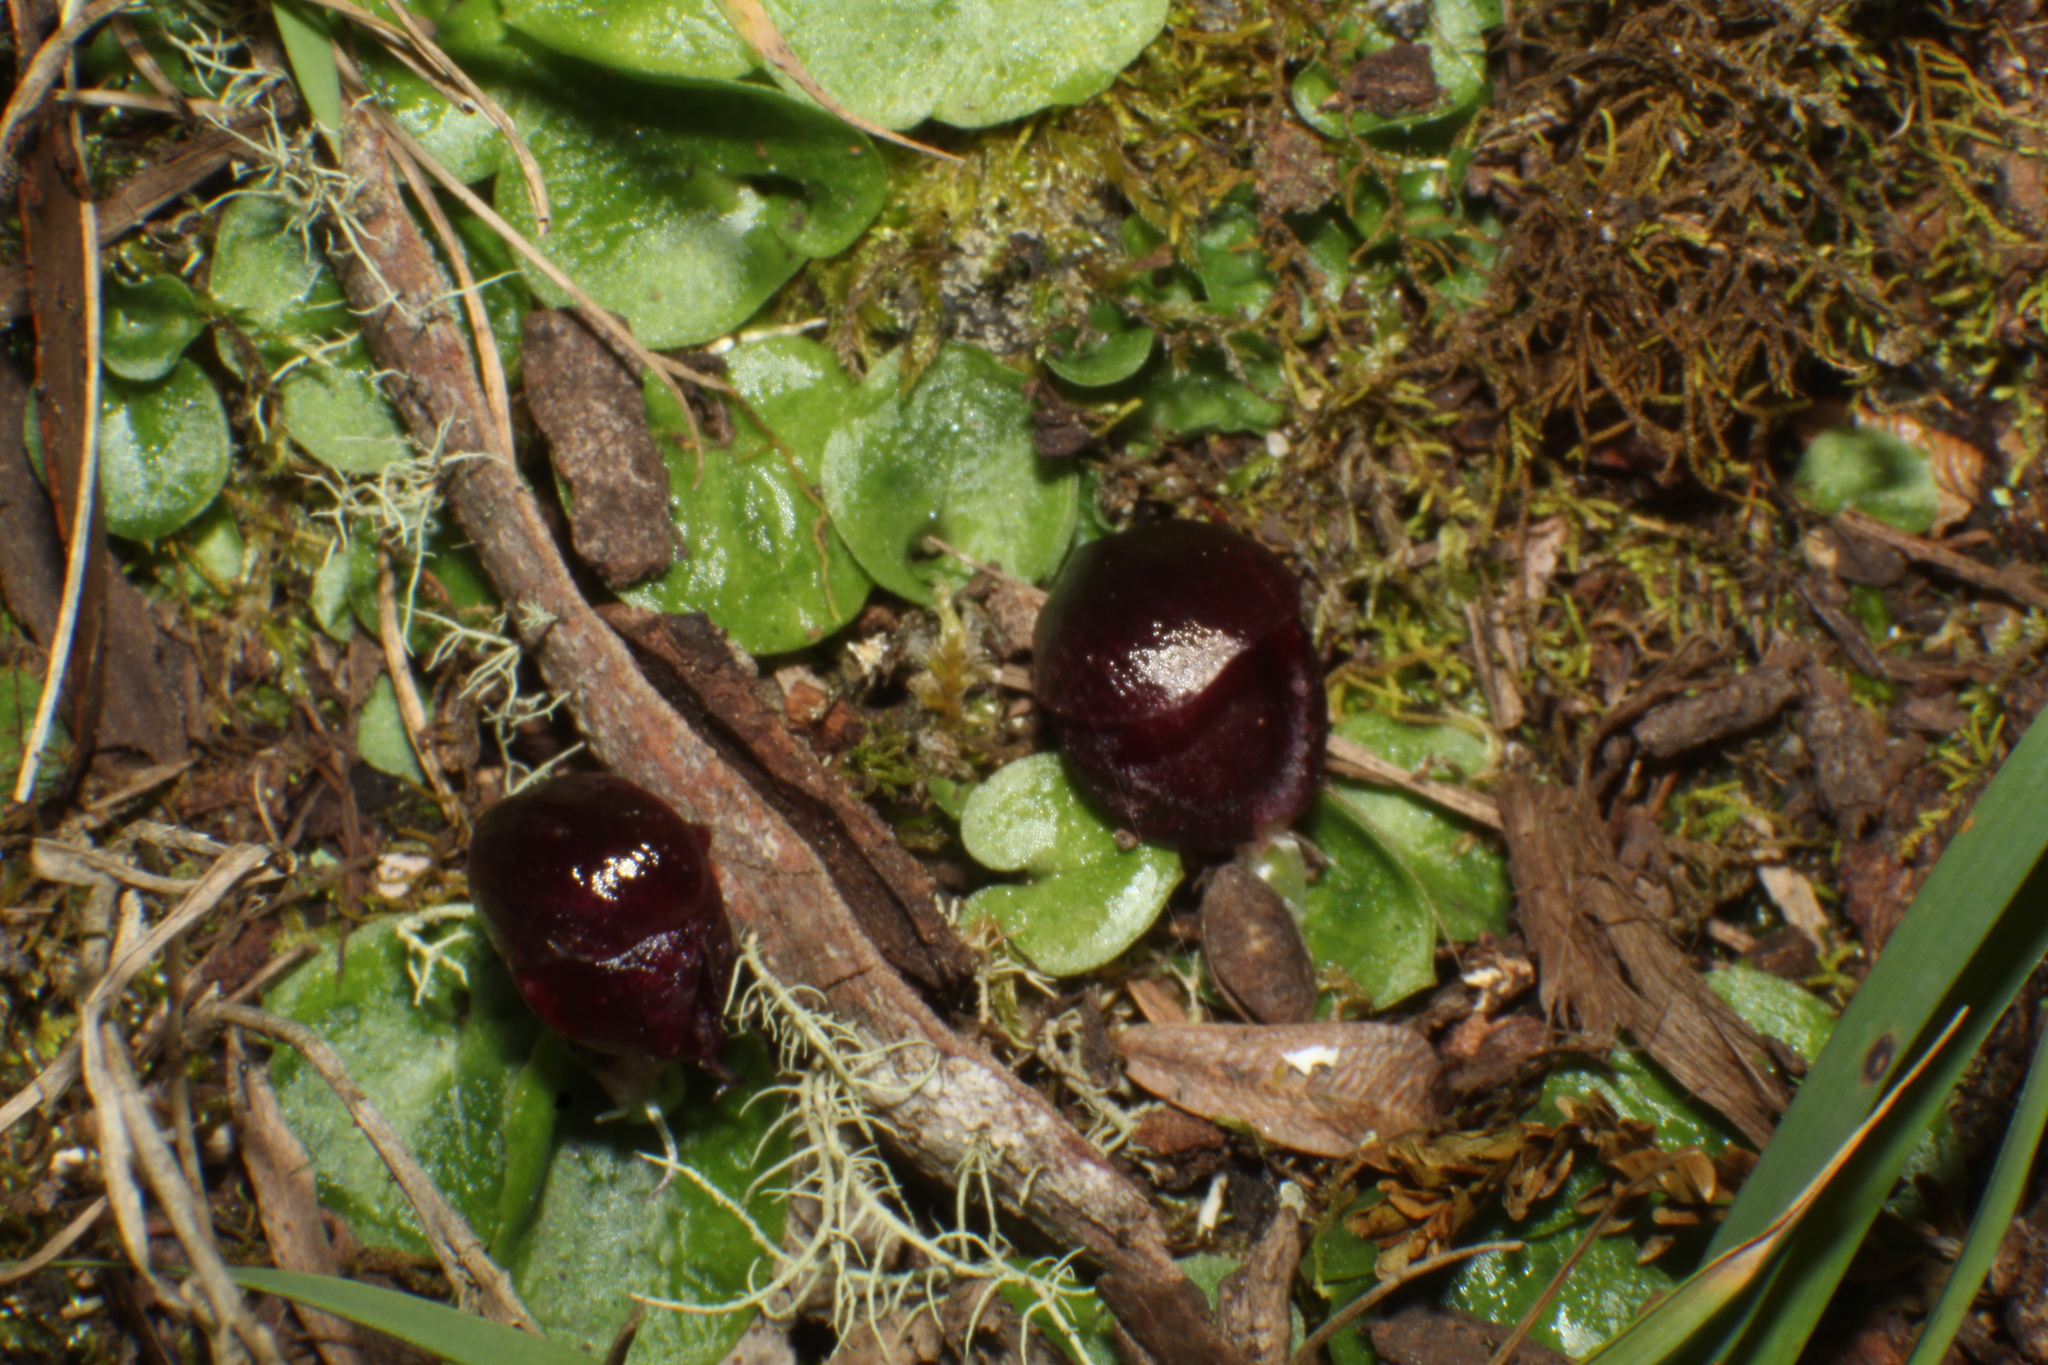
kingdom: Plantae
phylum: Tracheophyta
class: Liliopsida
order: Asparagales
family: Orchidaceae
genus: Corybas
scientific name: Corybas recurvus
